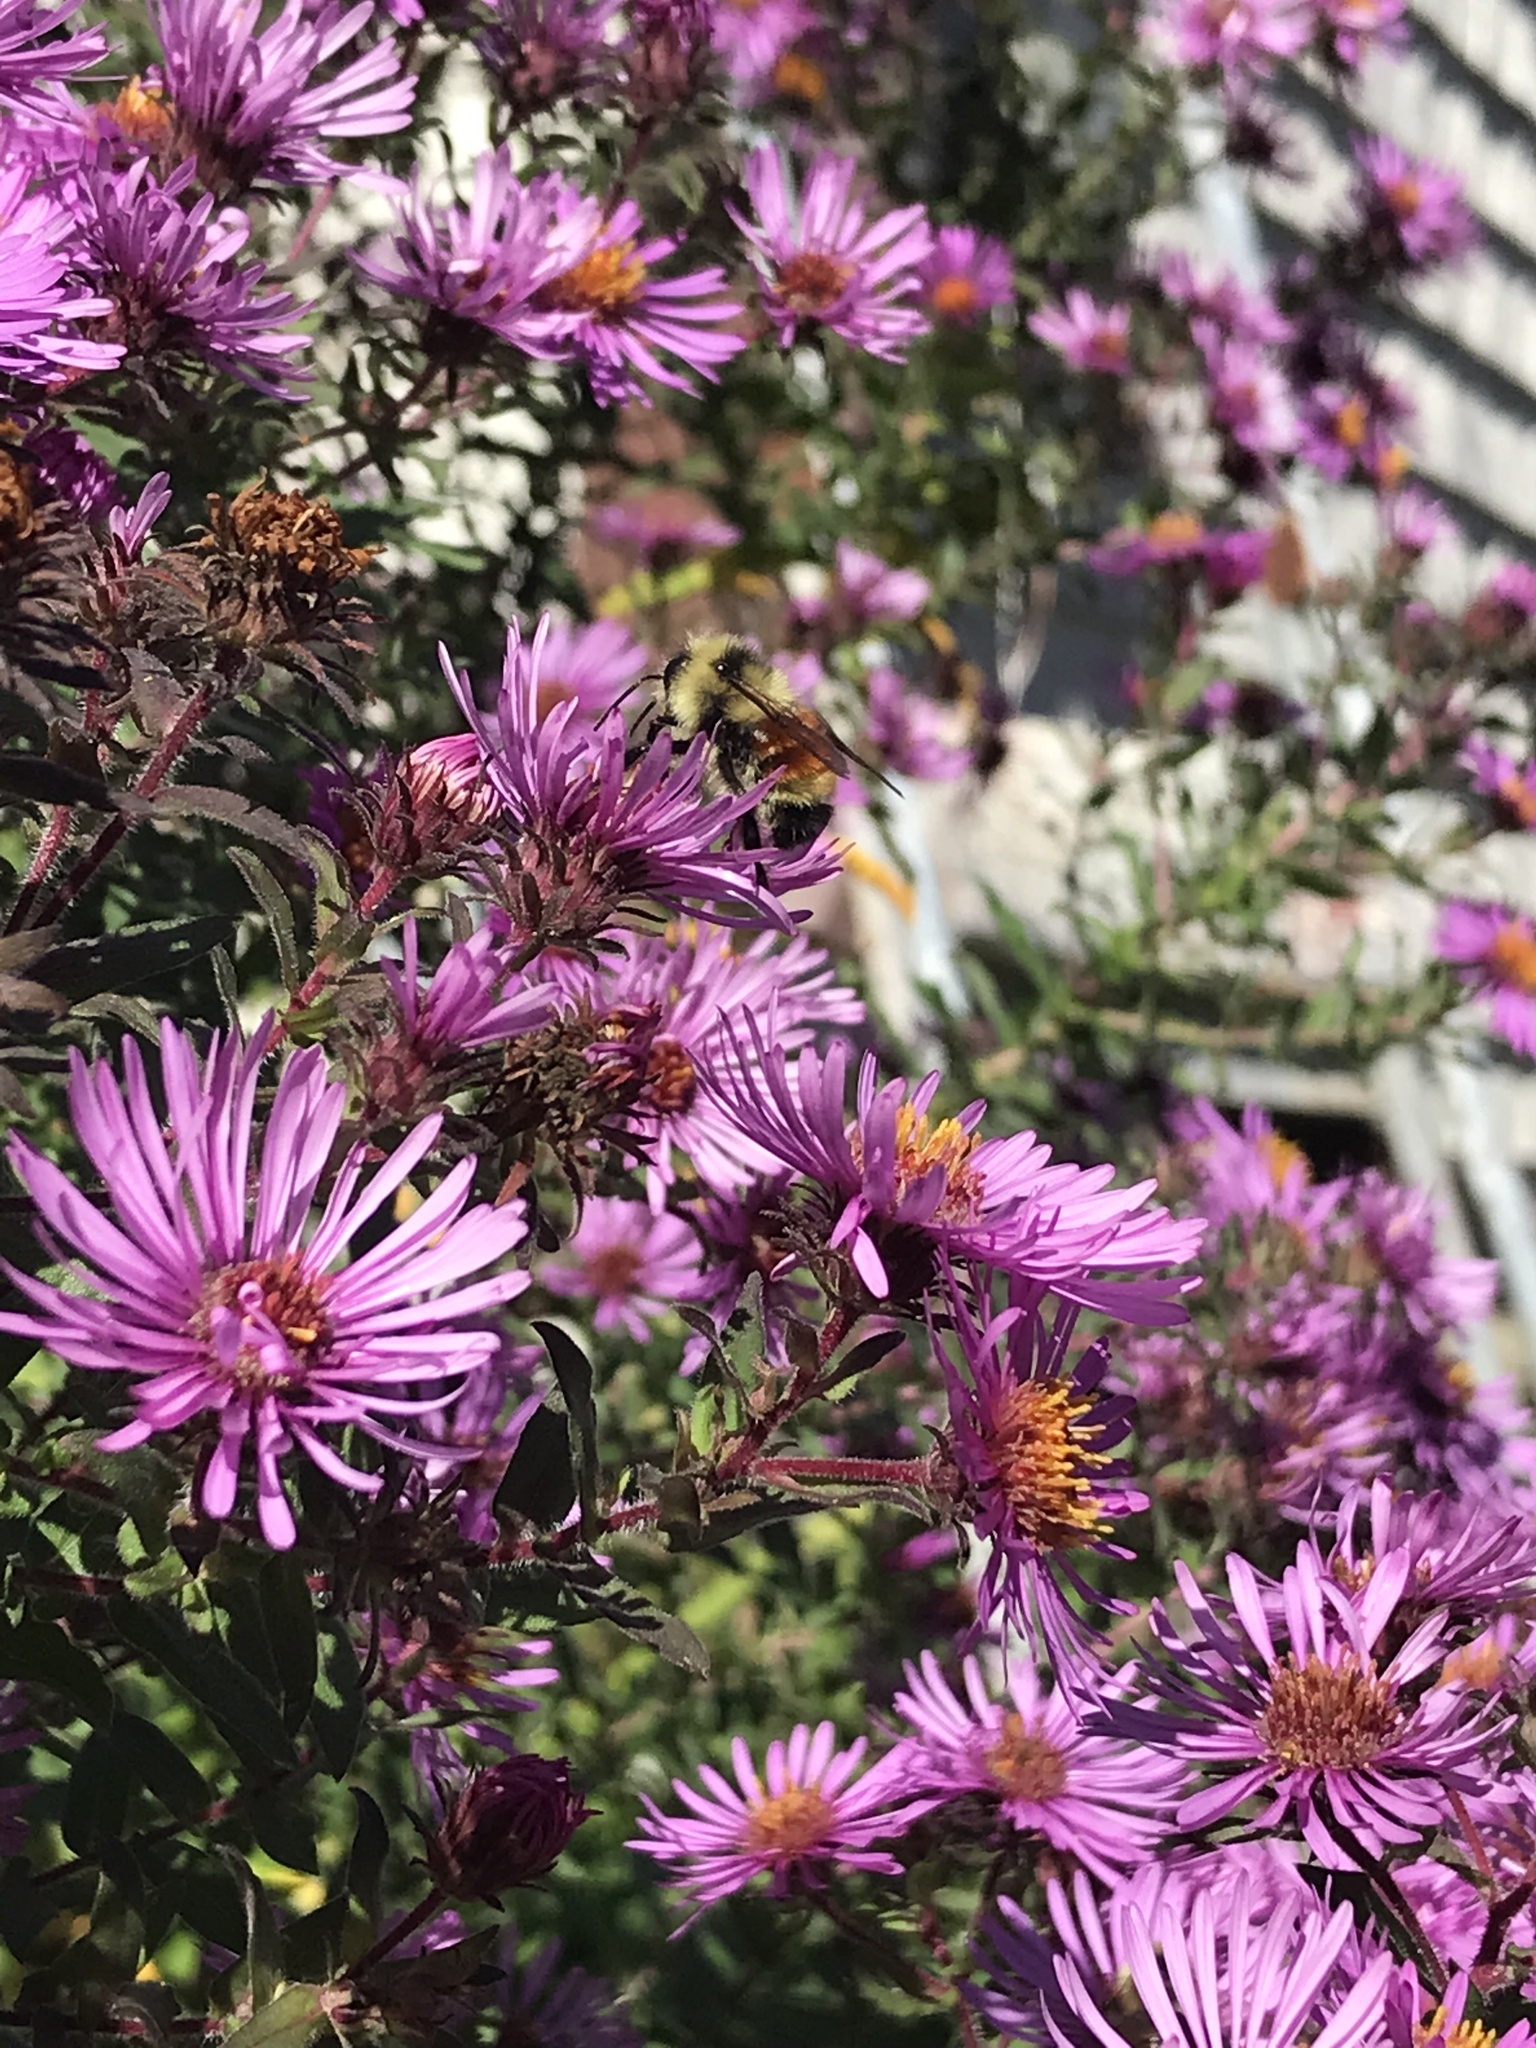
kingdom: Animalia
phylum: Arthropoda
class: Insecta
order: Hymenoptera
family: Apidae
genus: Bombus
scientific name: Bombus ternarius
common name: Tri-colored bumble bee
